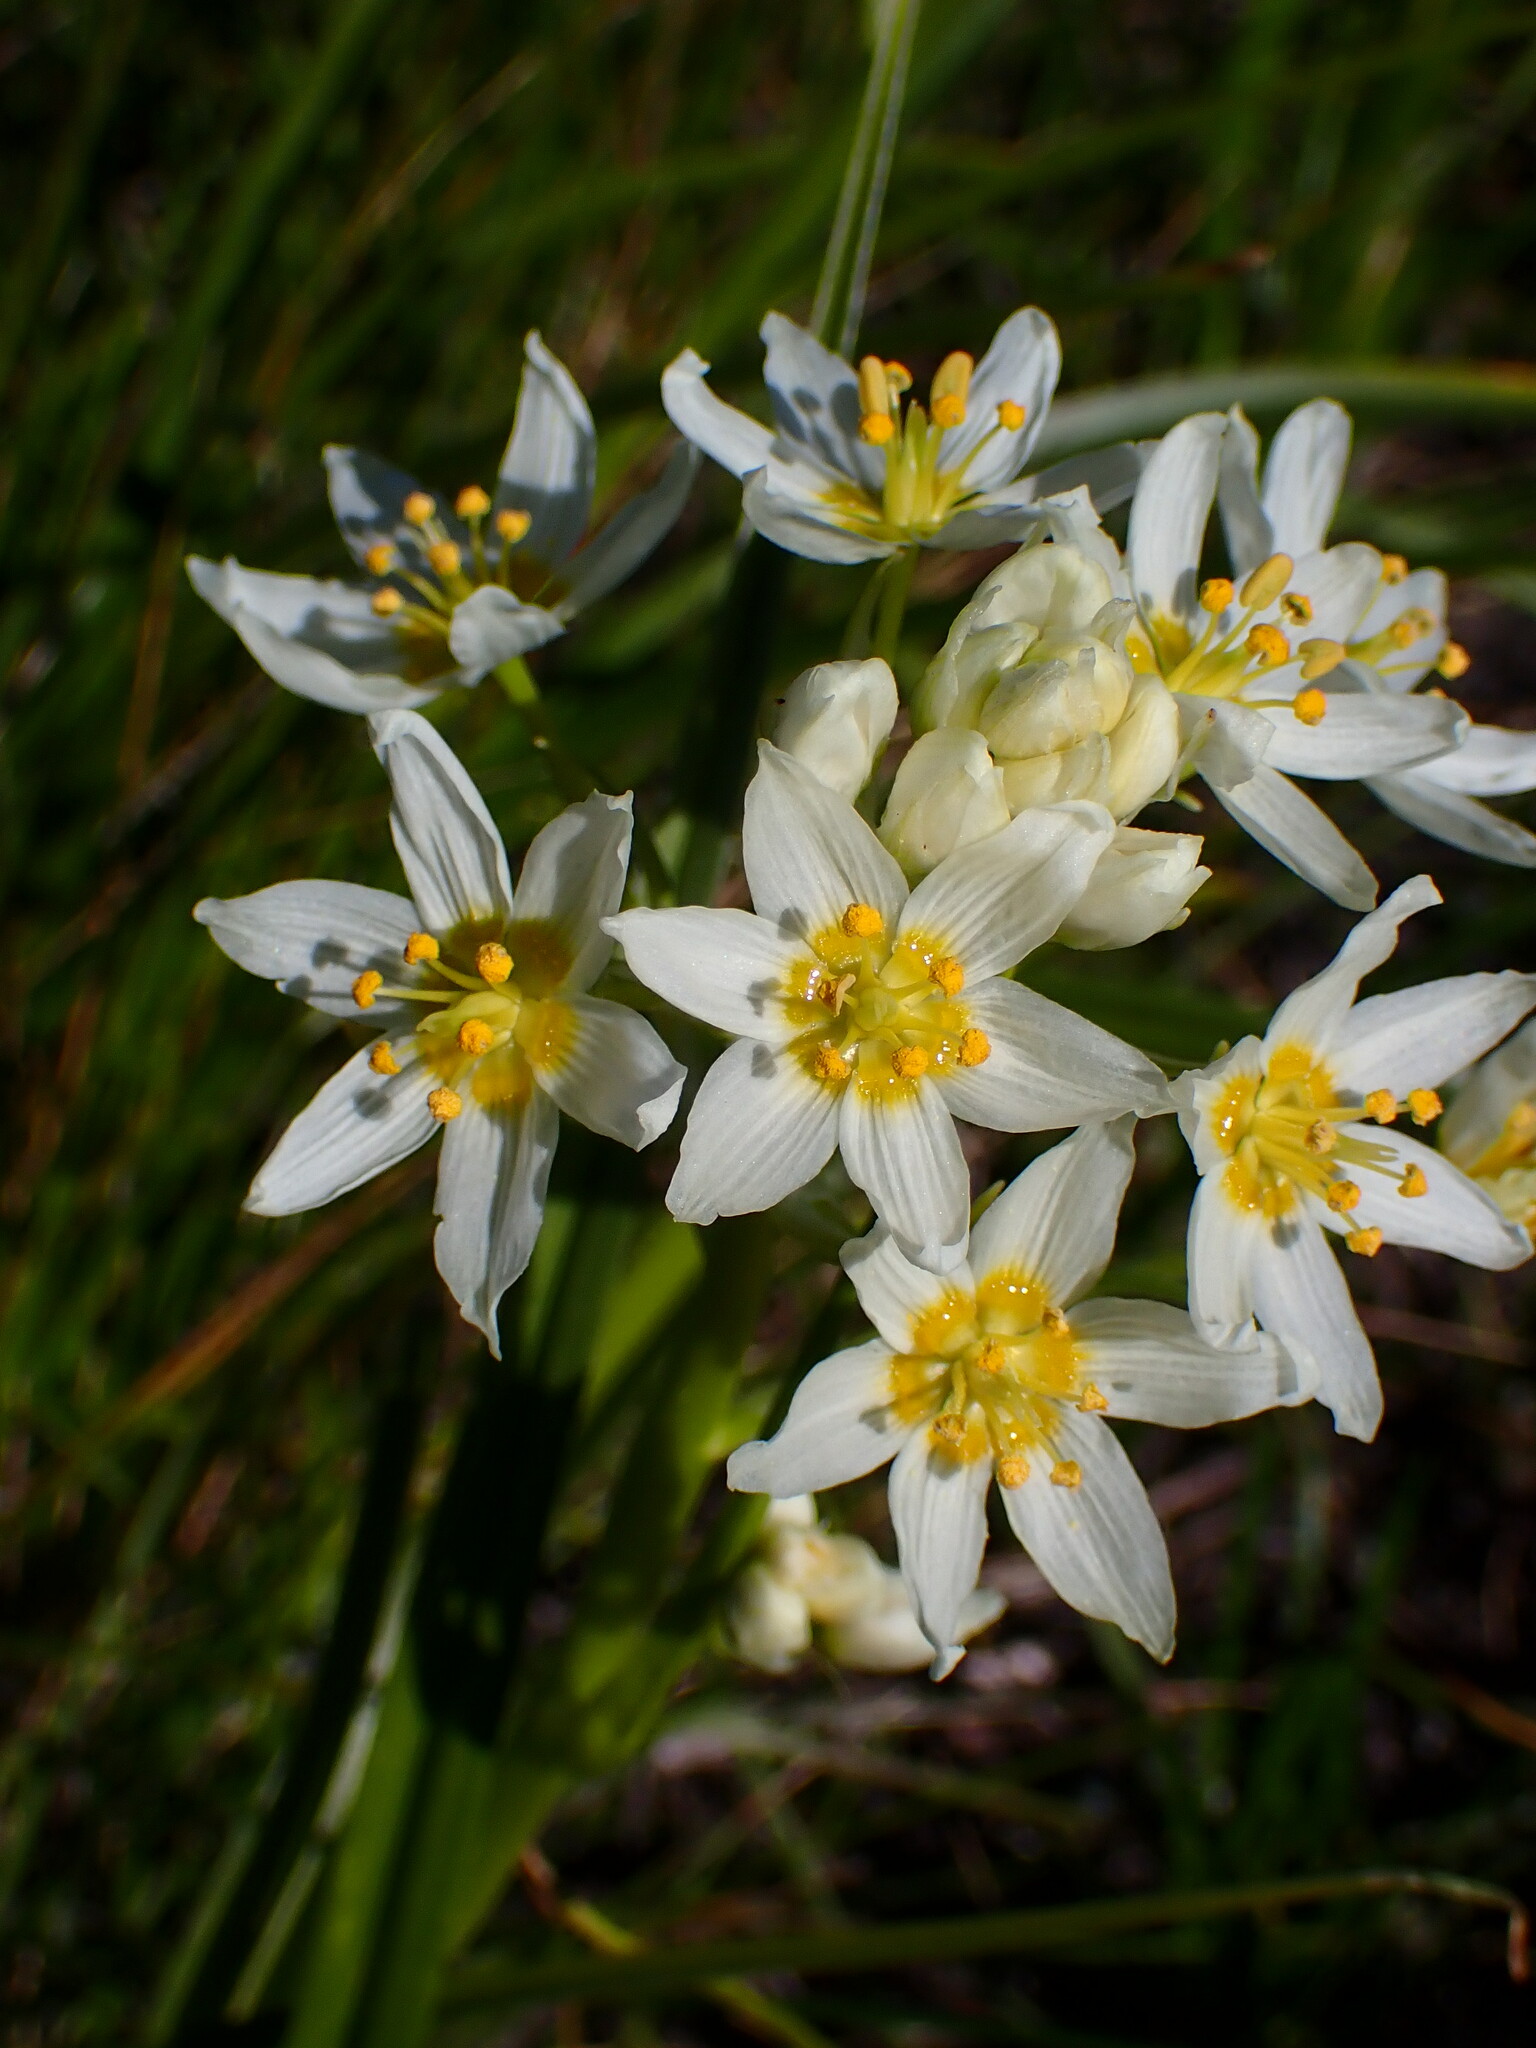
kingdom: Plantae
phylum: Tracheophyta
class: Liliopsida
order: Liliales
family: Melanthiaceae
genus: Toxicoscordion
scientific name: Toxicoscordion fremontii
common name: Fremont's death camas
